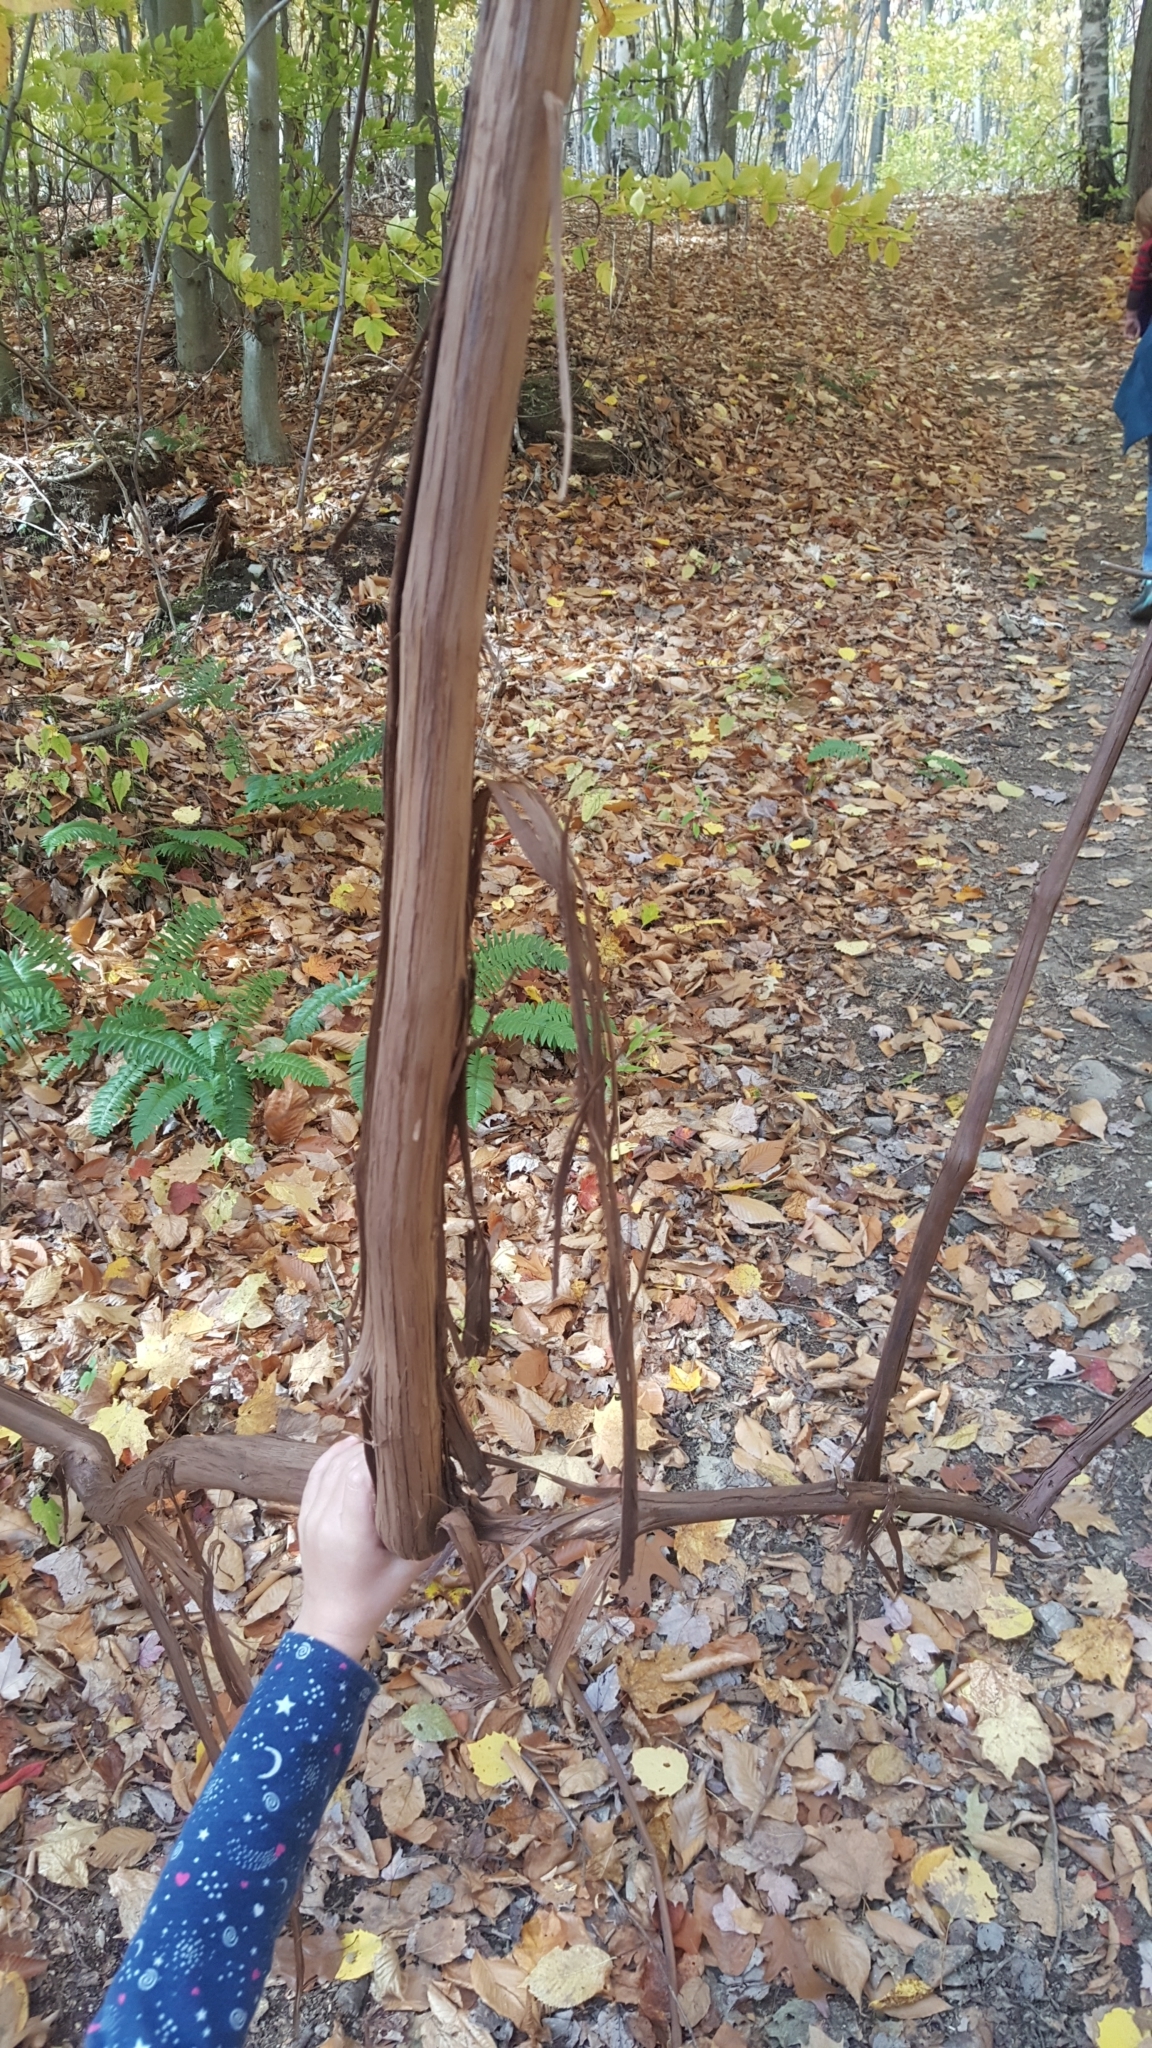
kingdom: Plantae
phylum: Tracheophyta
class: Magnoliopsida
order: Vitales
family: Vitaceae
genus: Vitis
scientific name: Vitis
